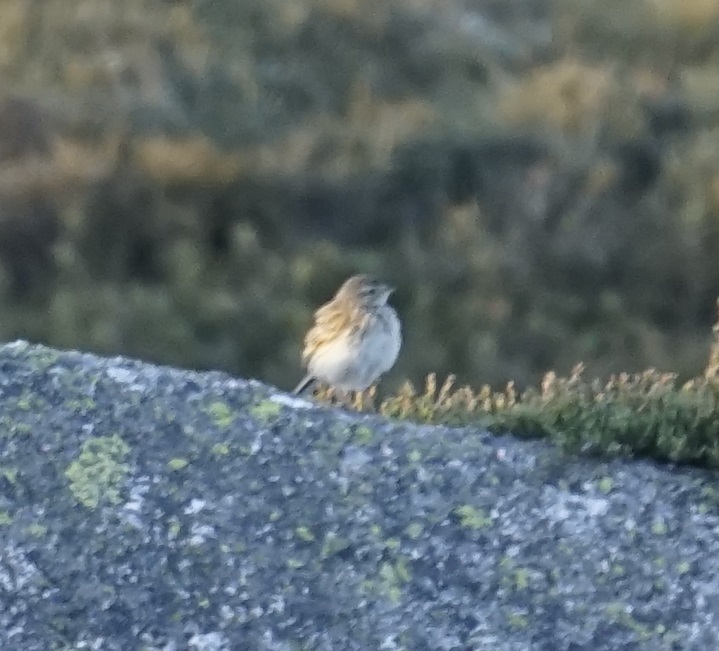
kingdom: Animalia
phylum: Chordata
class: Aves
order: Passeriformes
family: Motacillidae
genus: Anthus
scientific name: Anthus australis
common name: Australian pipit
